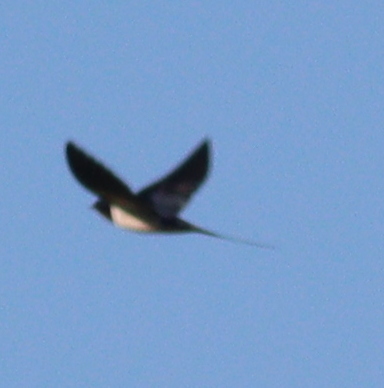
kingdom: Animalia
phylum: Chordata
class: Aves
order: Passeriformes
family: Hirundinidae
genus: Hirundo
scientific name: Hirundo rustica
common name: Barn swallow
